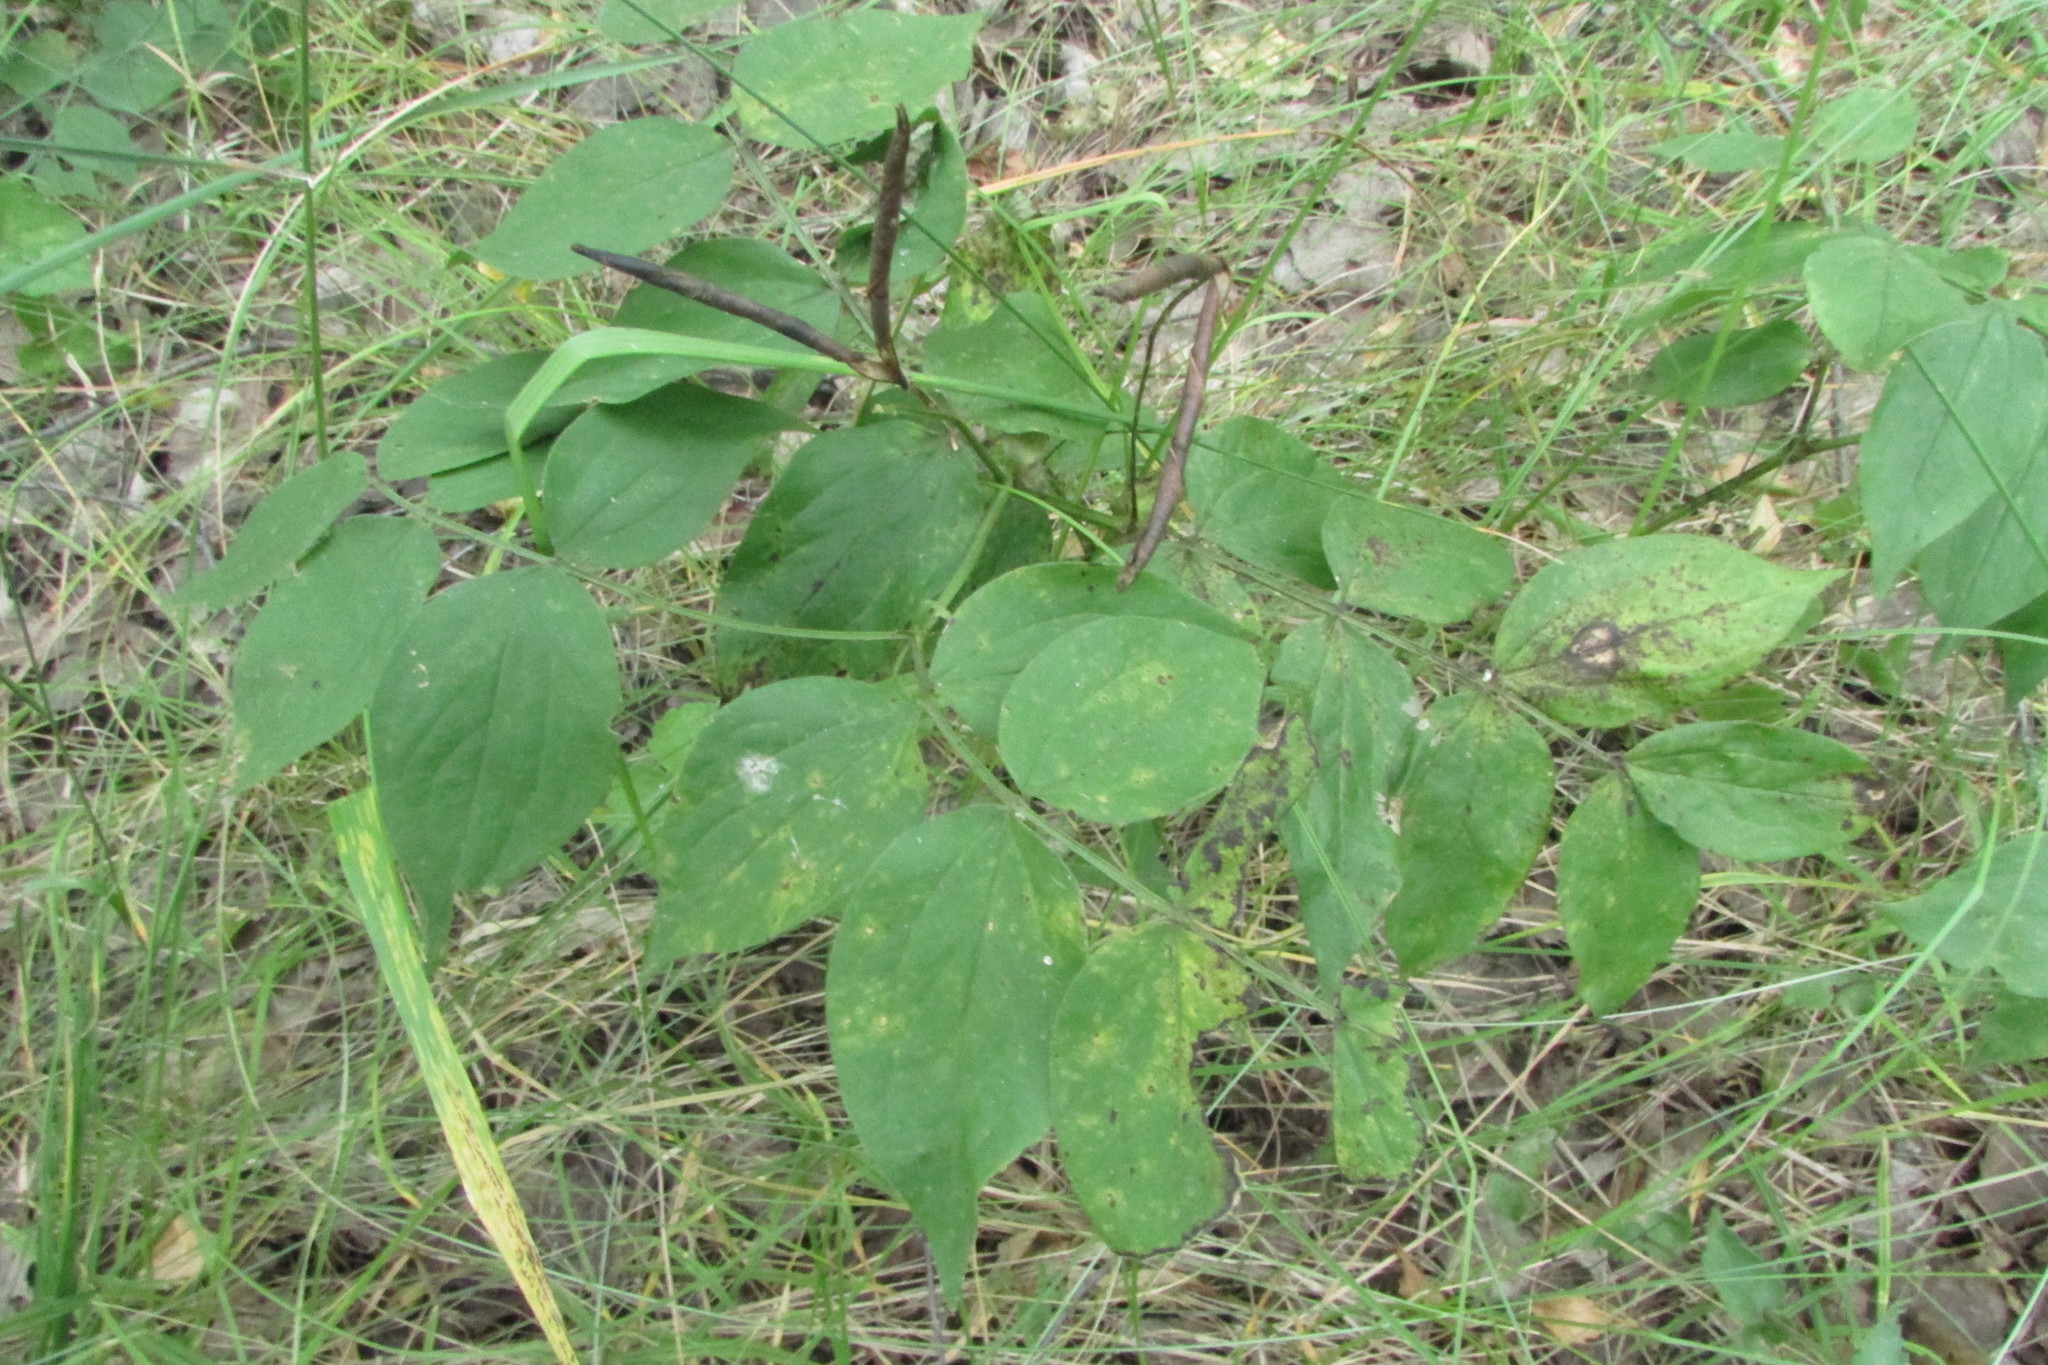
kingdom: Plantae
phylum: Tracheophyta
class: Magnoliopsida
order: Fabales
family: Fabaceae
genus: Lathyrus
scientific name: Lathyrus vernus
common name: Spring pea
